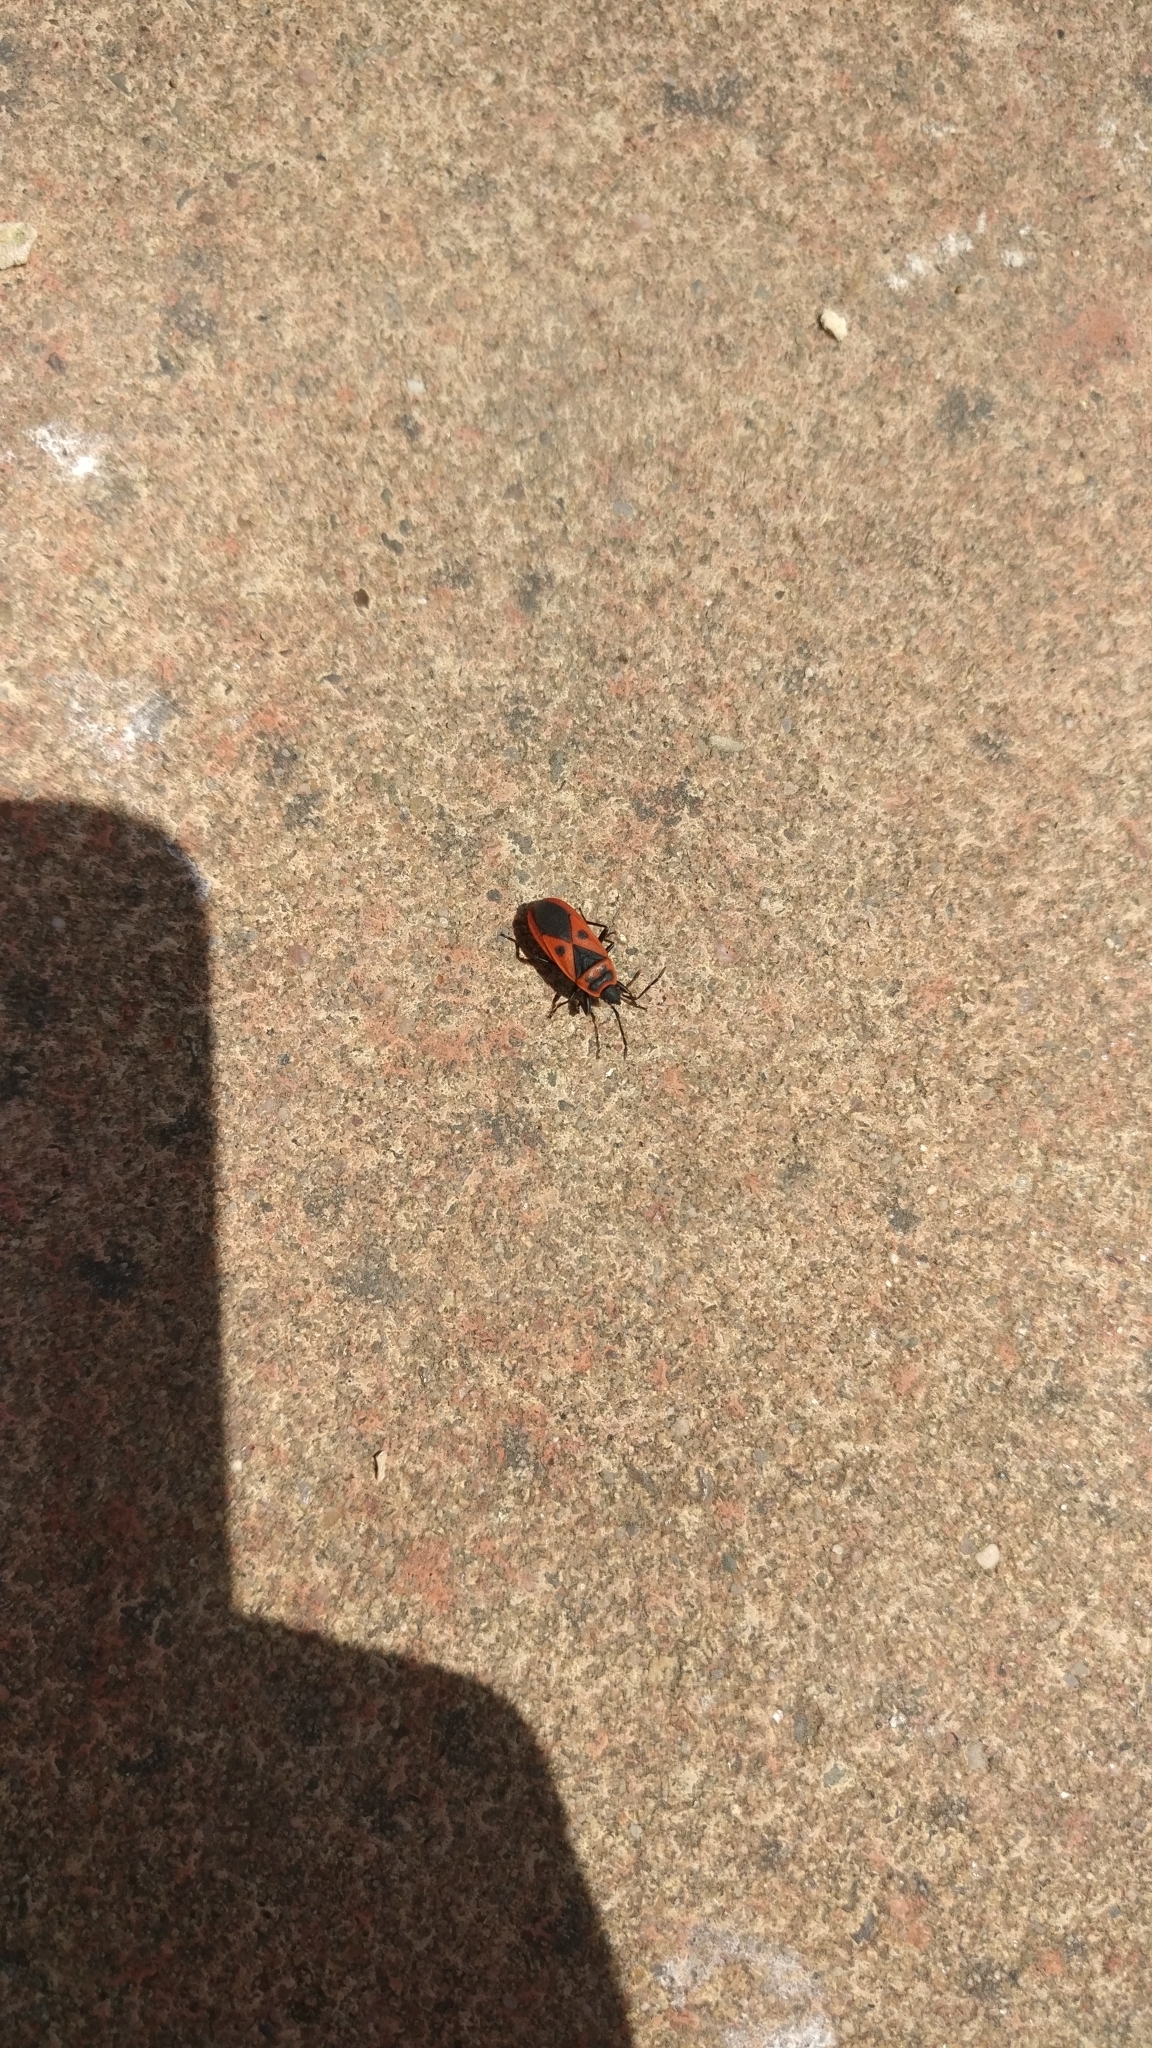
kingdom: Animalia
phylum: Arthropoda
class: Insecta
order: Hemiptera
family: Pyrrhocoridae
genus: Scantius
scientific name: Scantius aegyptius
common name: Red bug
